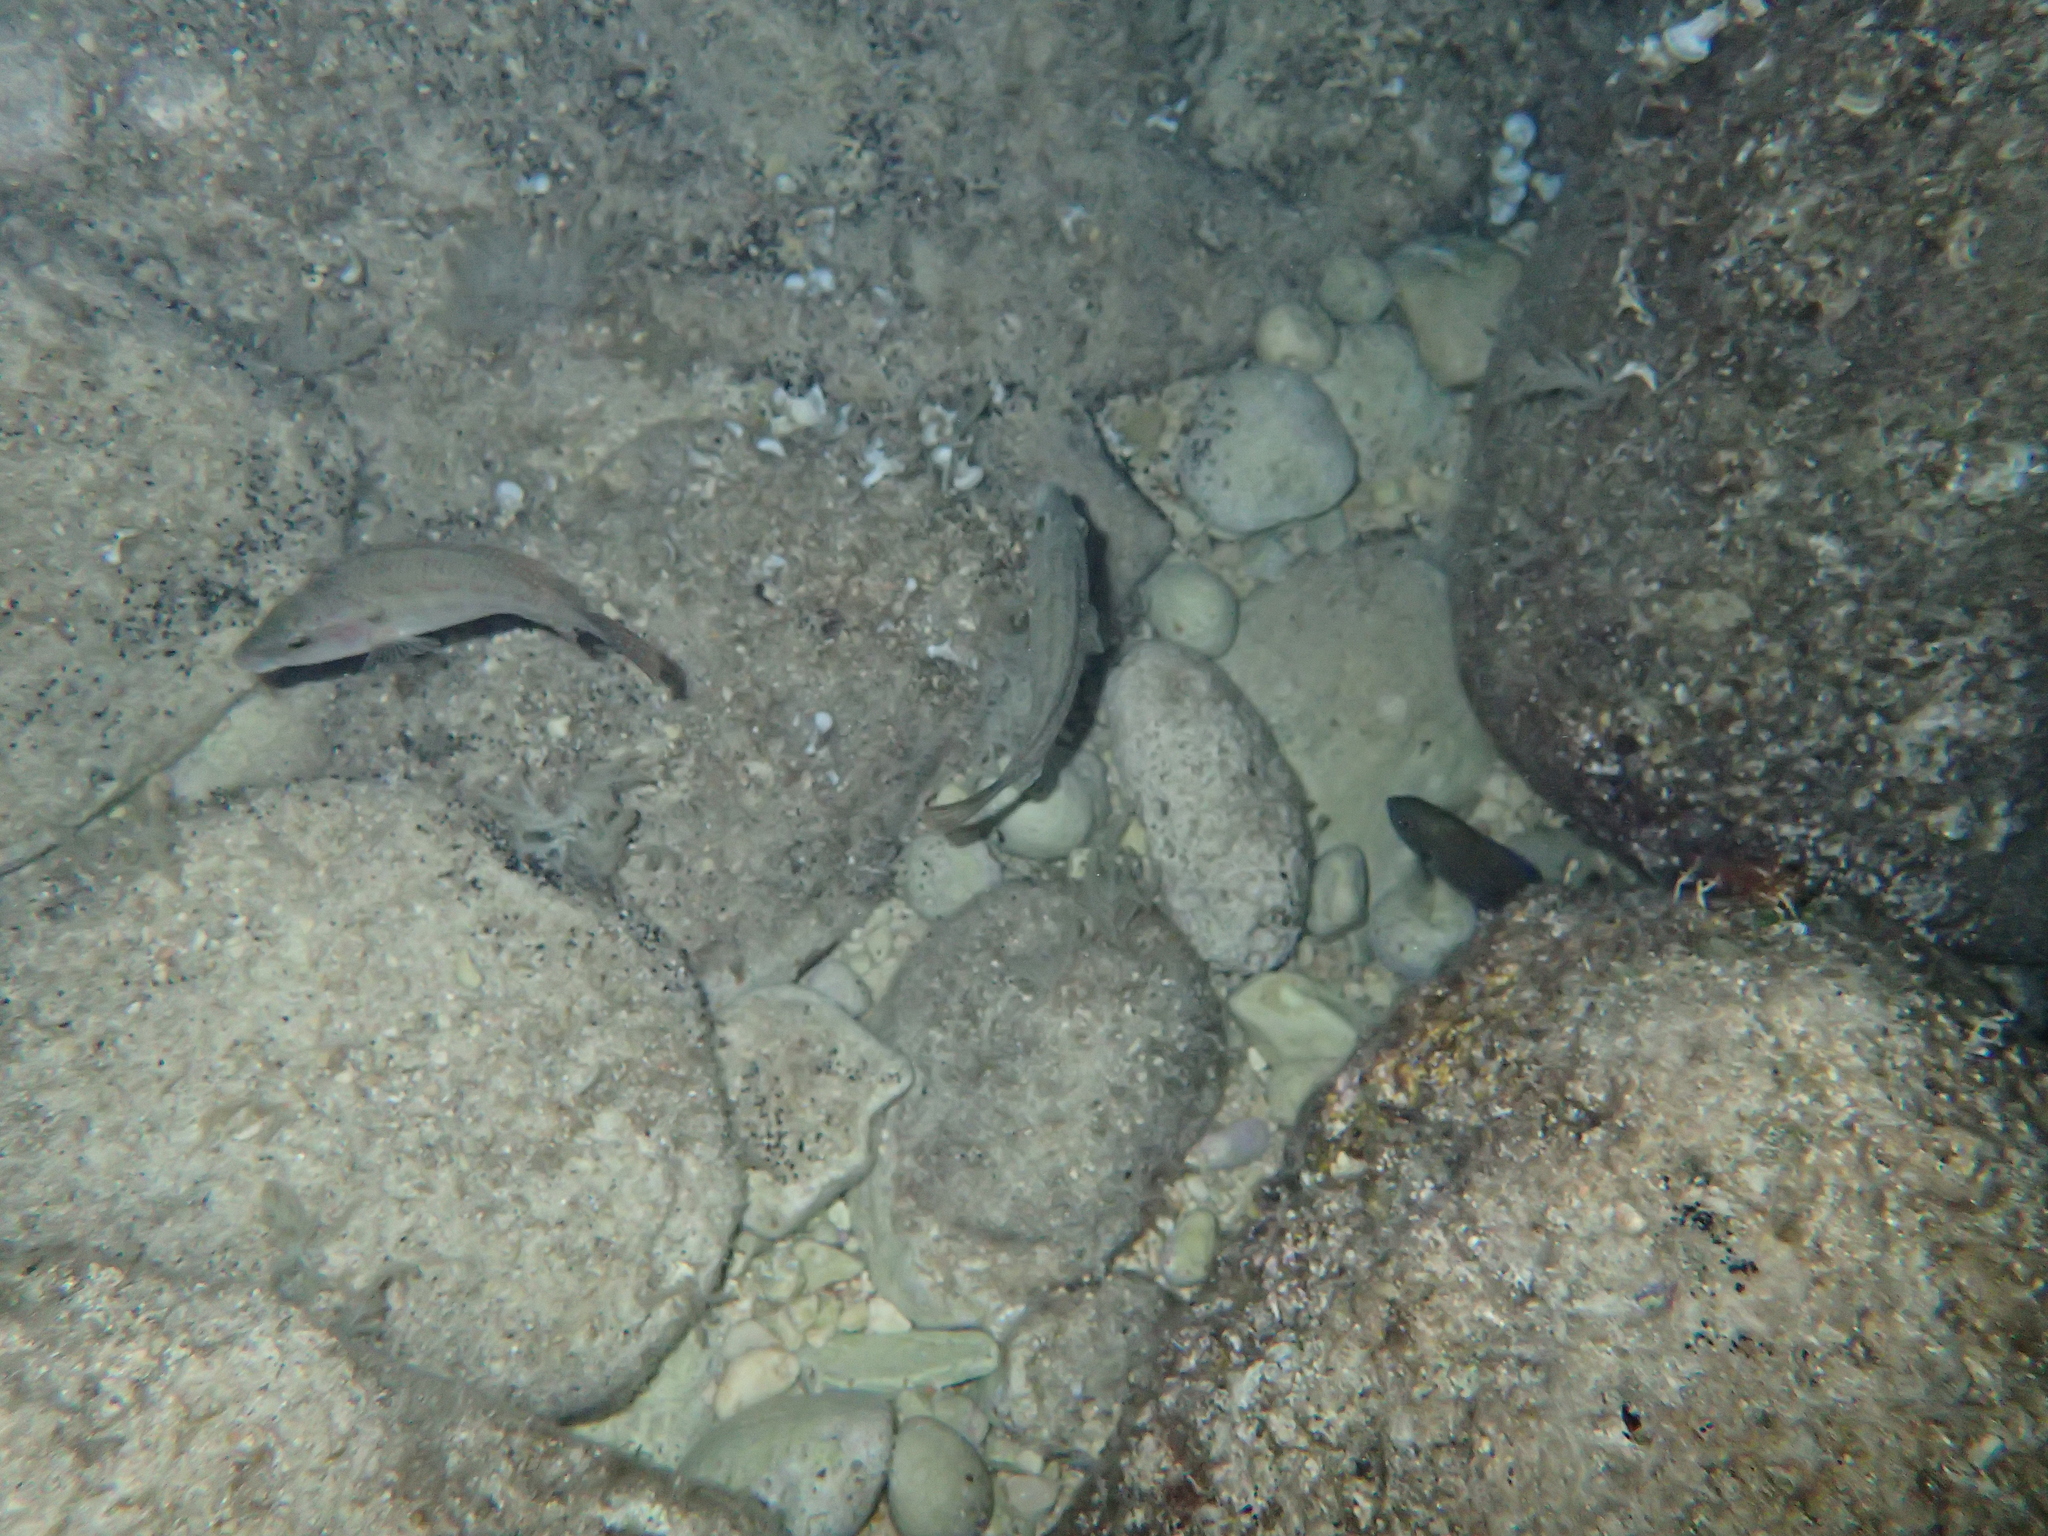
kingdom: Animalia
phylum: Chordata
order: Perciformes
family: Labridae
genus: Symphodus
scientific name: Symphodus tinca
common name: Peacock wrasse
